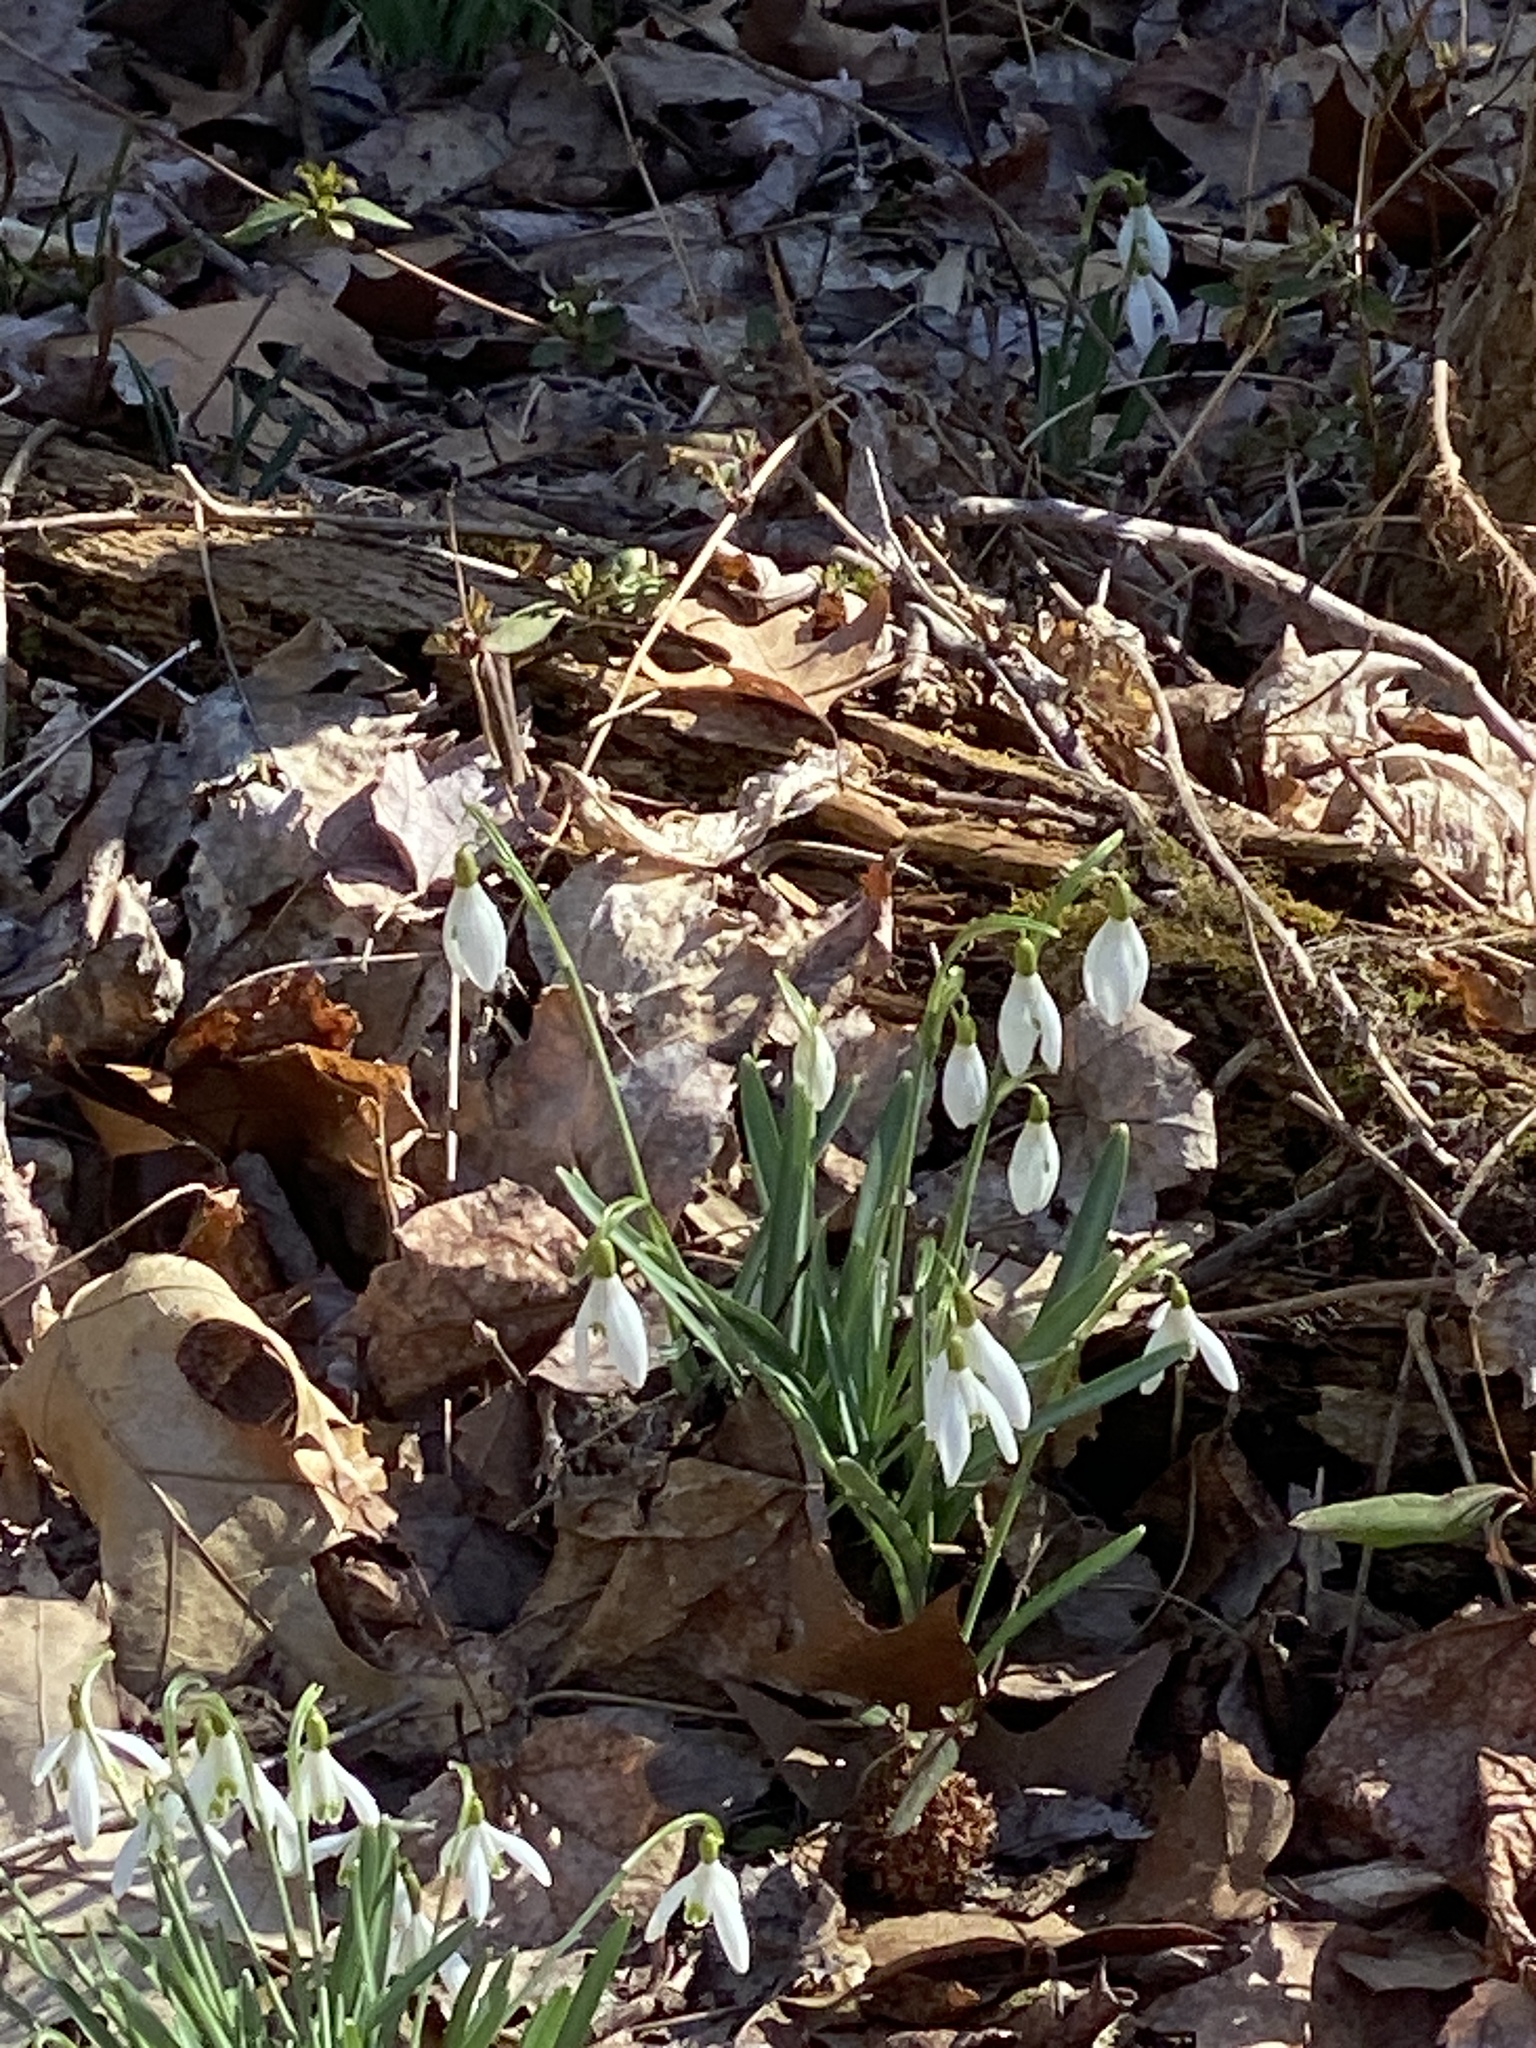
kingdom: Plantae
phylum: Tracheophyta
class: Liliopsida
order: Asparagales
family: Amaryllidaceae
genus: Galanthus
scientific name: Galanthus nivalis
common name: Snowdrop
